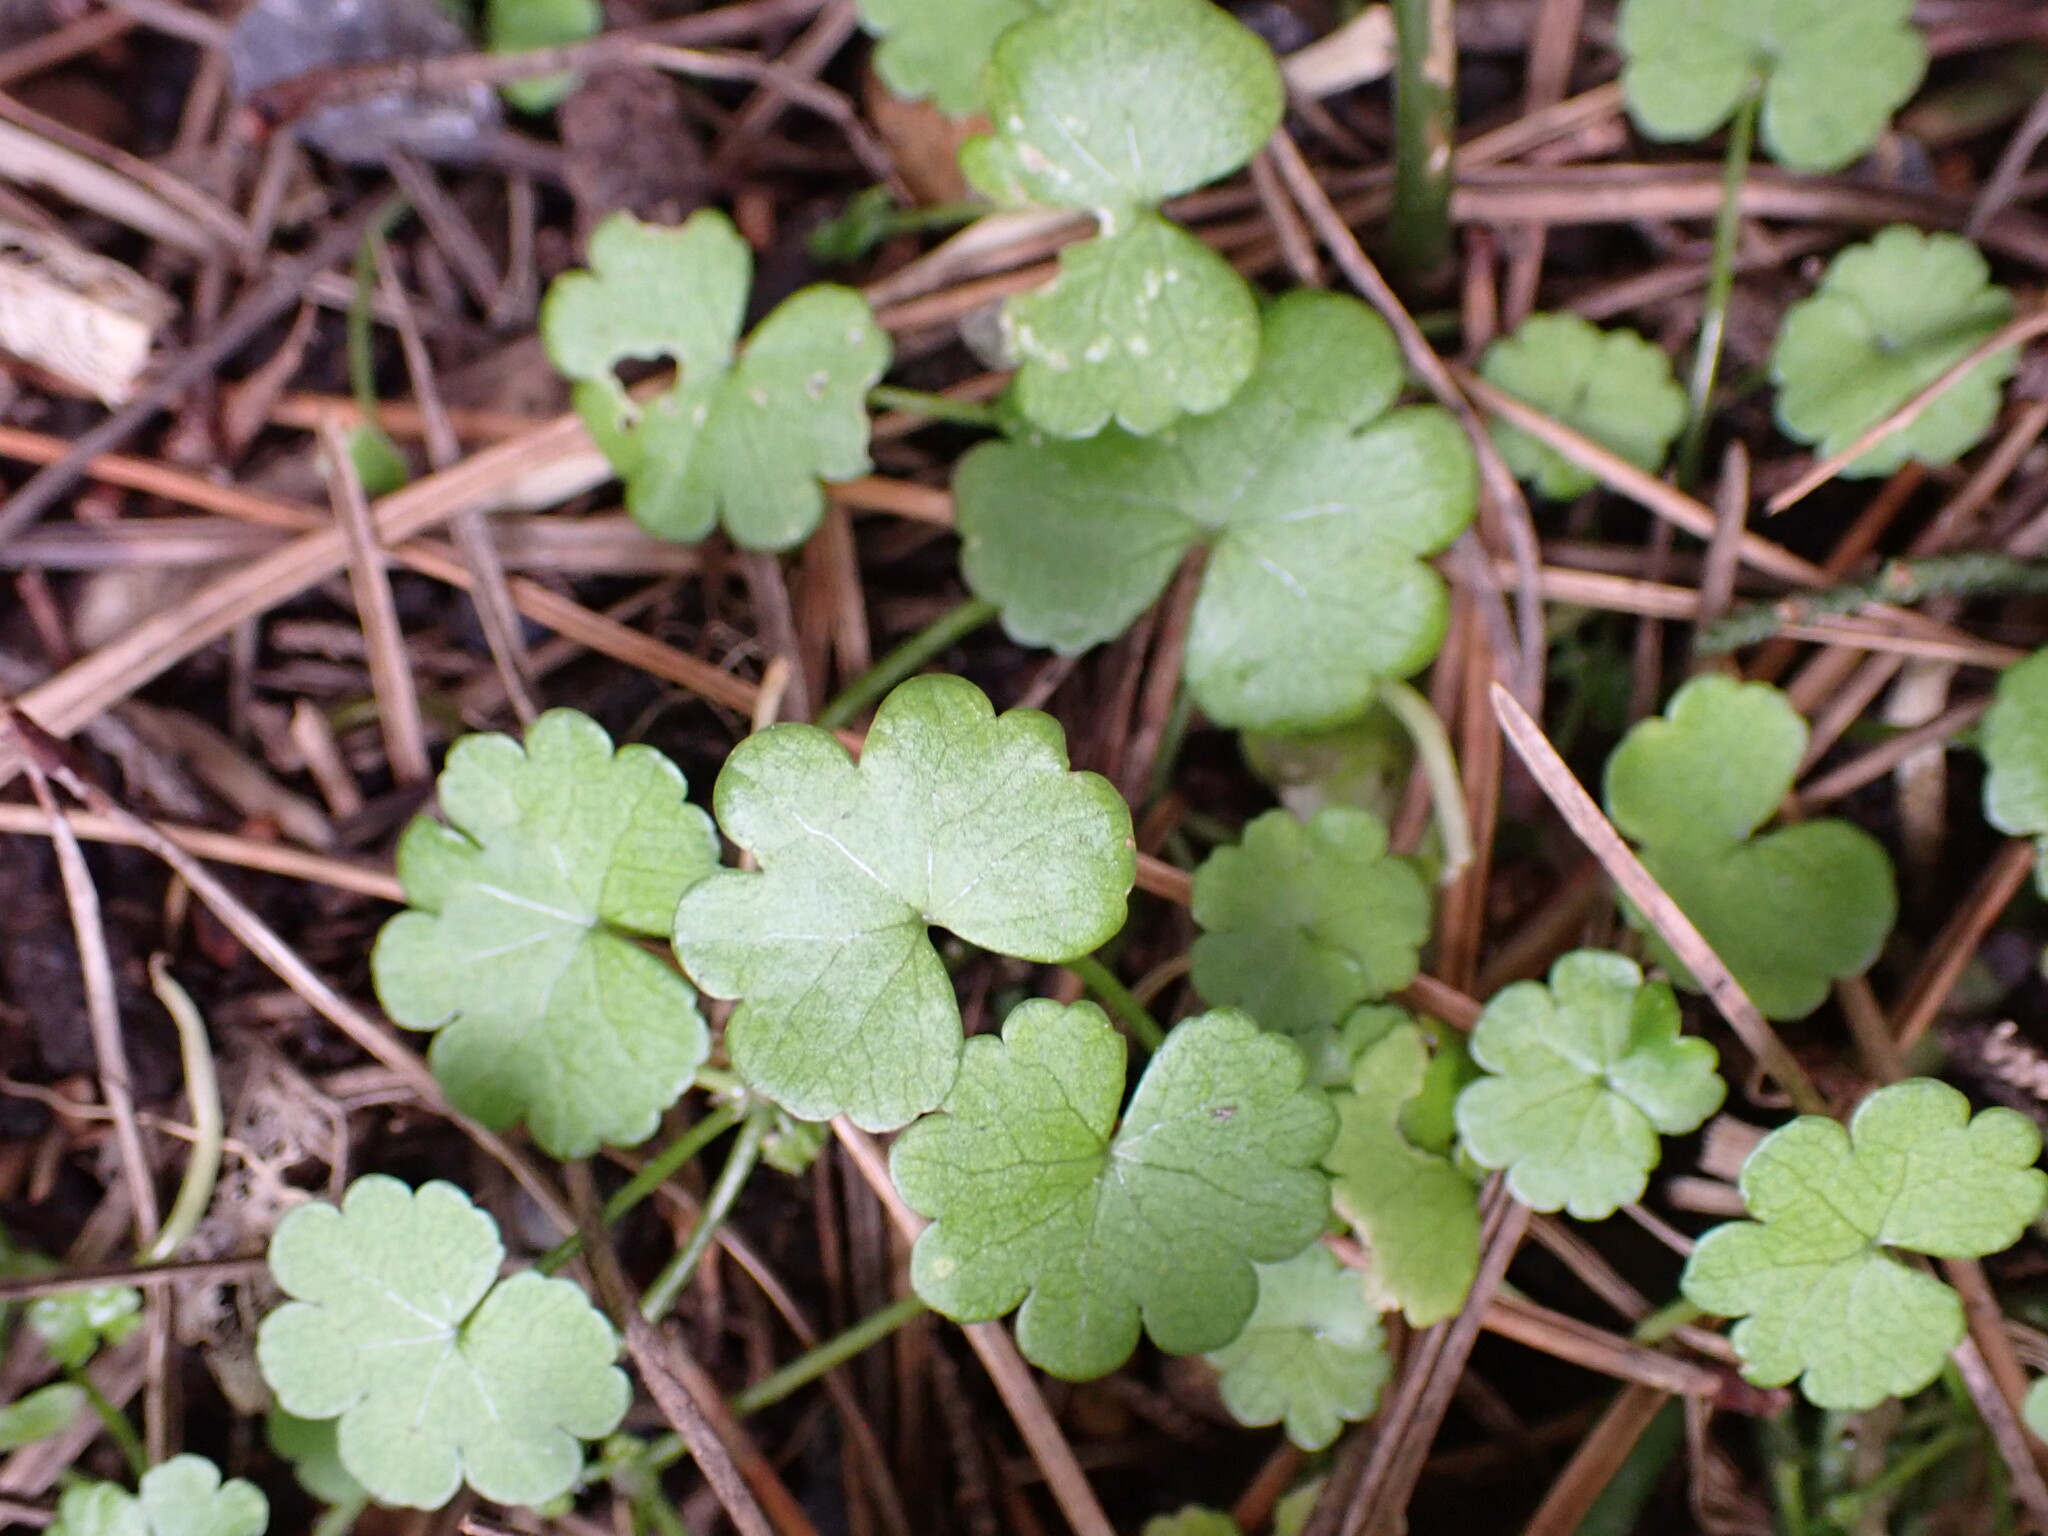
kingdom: Plantae
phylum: Tracheophyta
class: Magnoliopsida
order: Apiales
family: Araliaceae
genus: Hydrocotyle
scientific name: Hydrocotyle heteromeria
